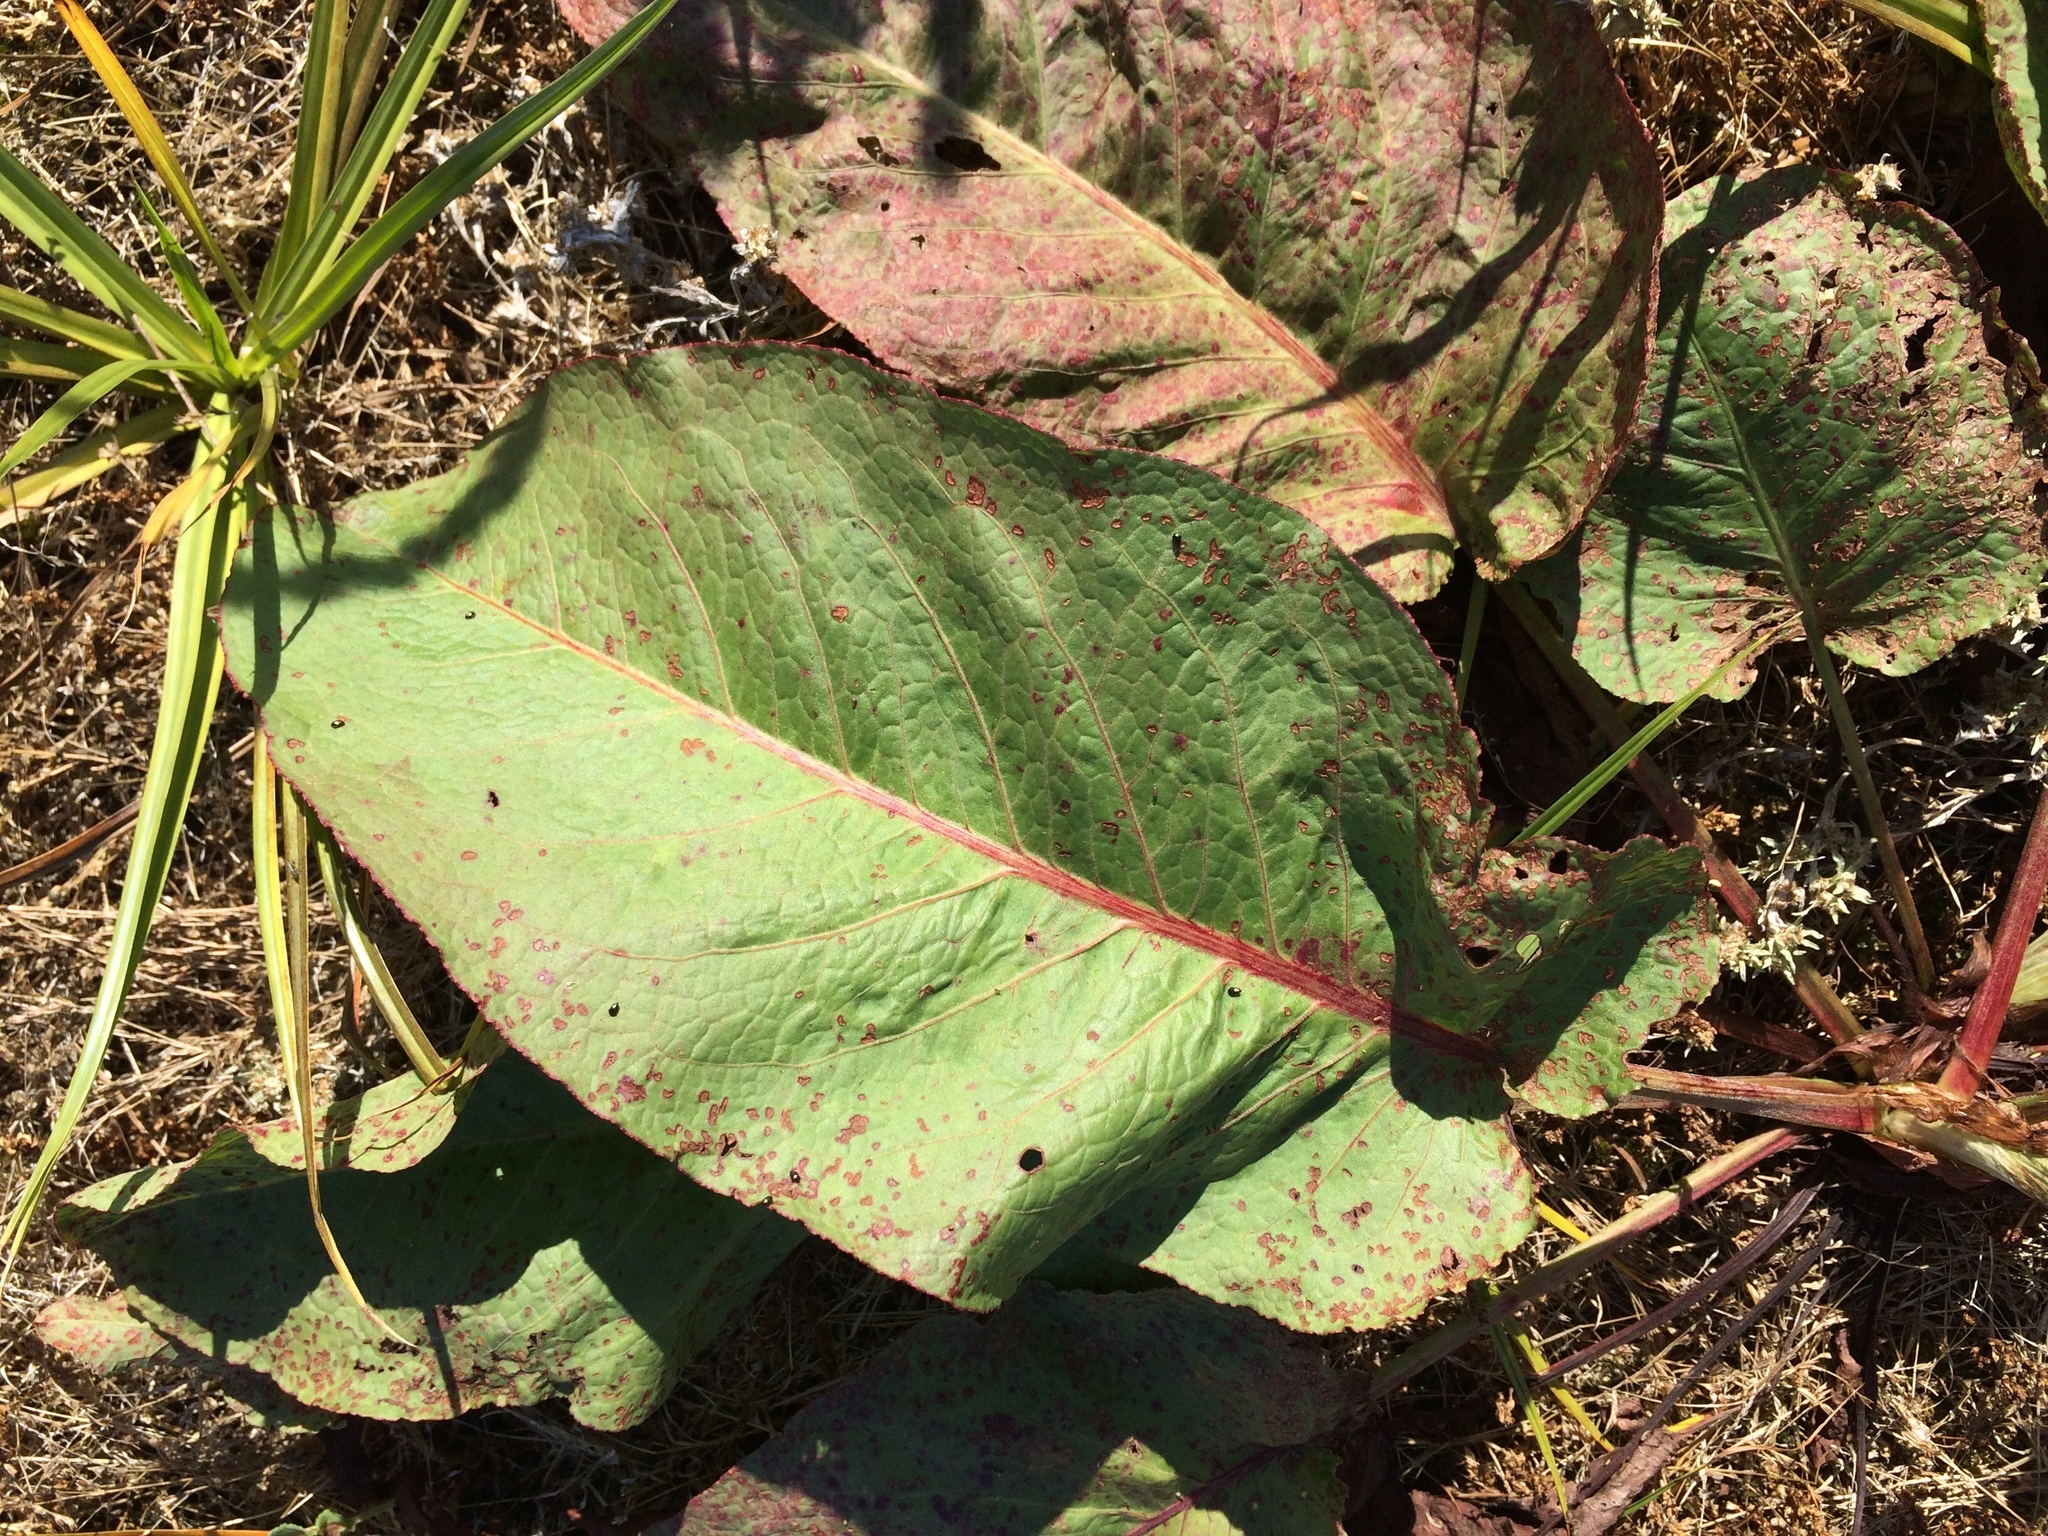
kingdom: Fungi
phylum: Ascomycota
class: Dothideomycetes
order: Mycosphaerellales
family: Mycosphaerellaceae
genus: Ramularia
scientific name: Ramularia rubella
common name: Red dock spot
